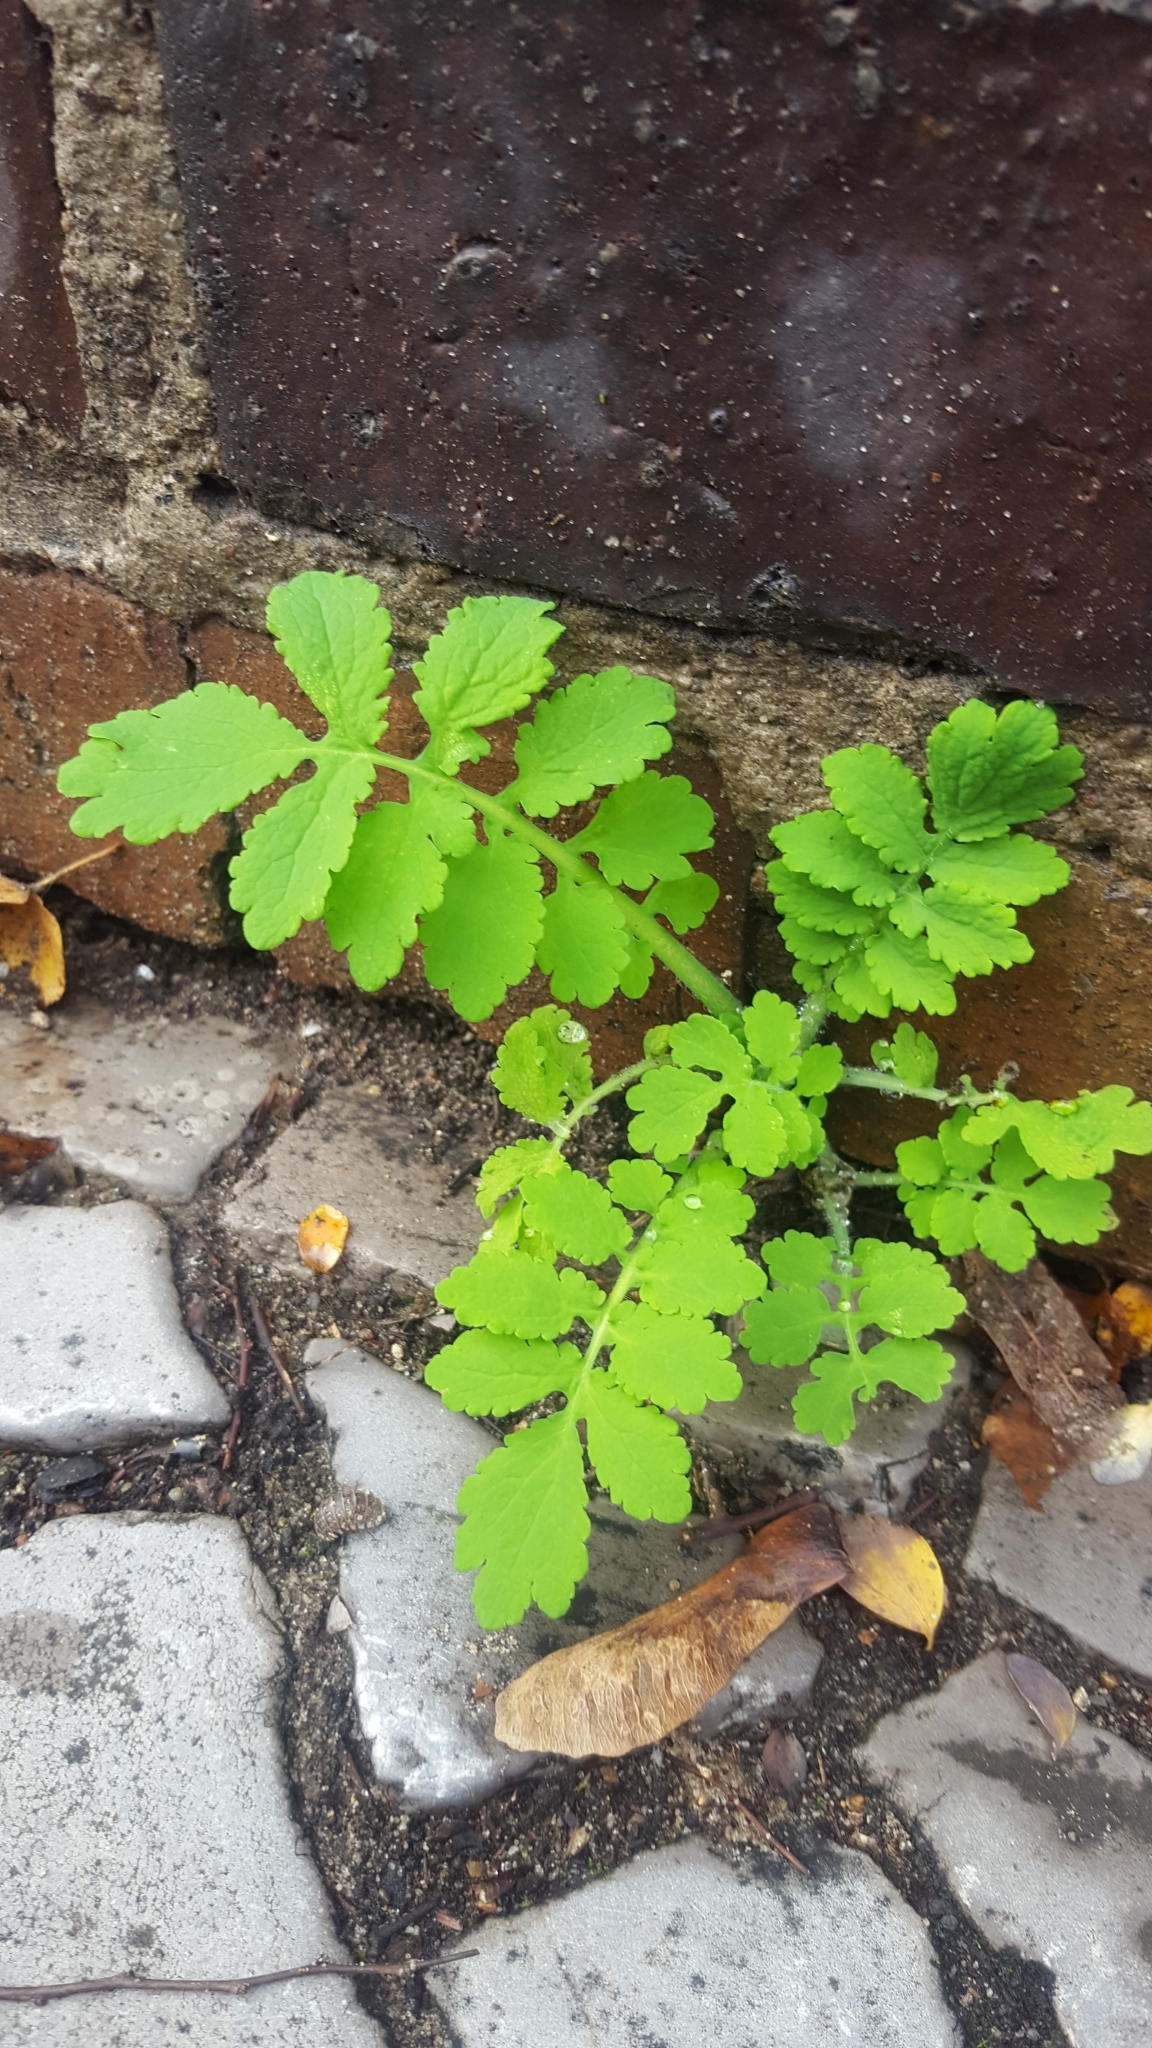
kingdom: Plantae
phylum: Tracheophyta
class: Magnoliopsida
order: Ranunculales
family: Papaveraceae
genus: Chelidonium
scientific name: Chelidonium majus
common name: Greater celandine
